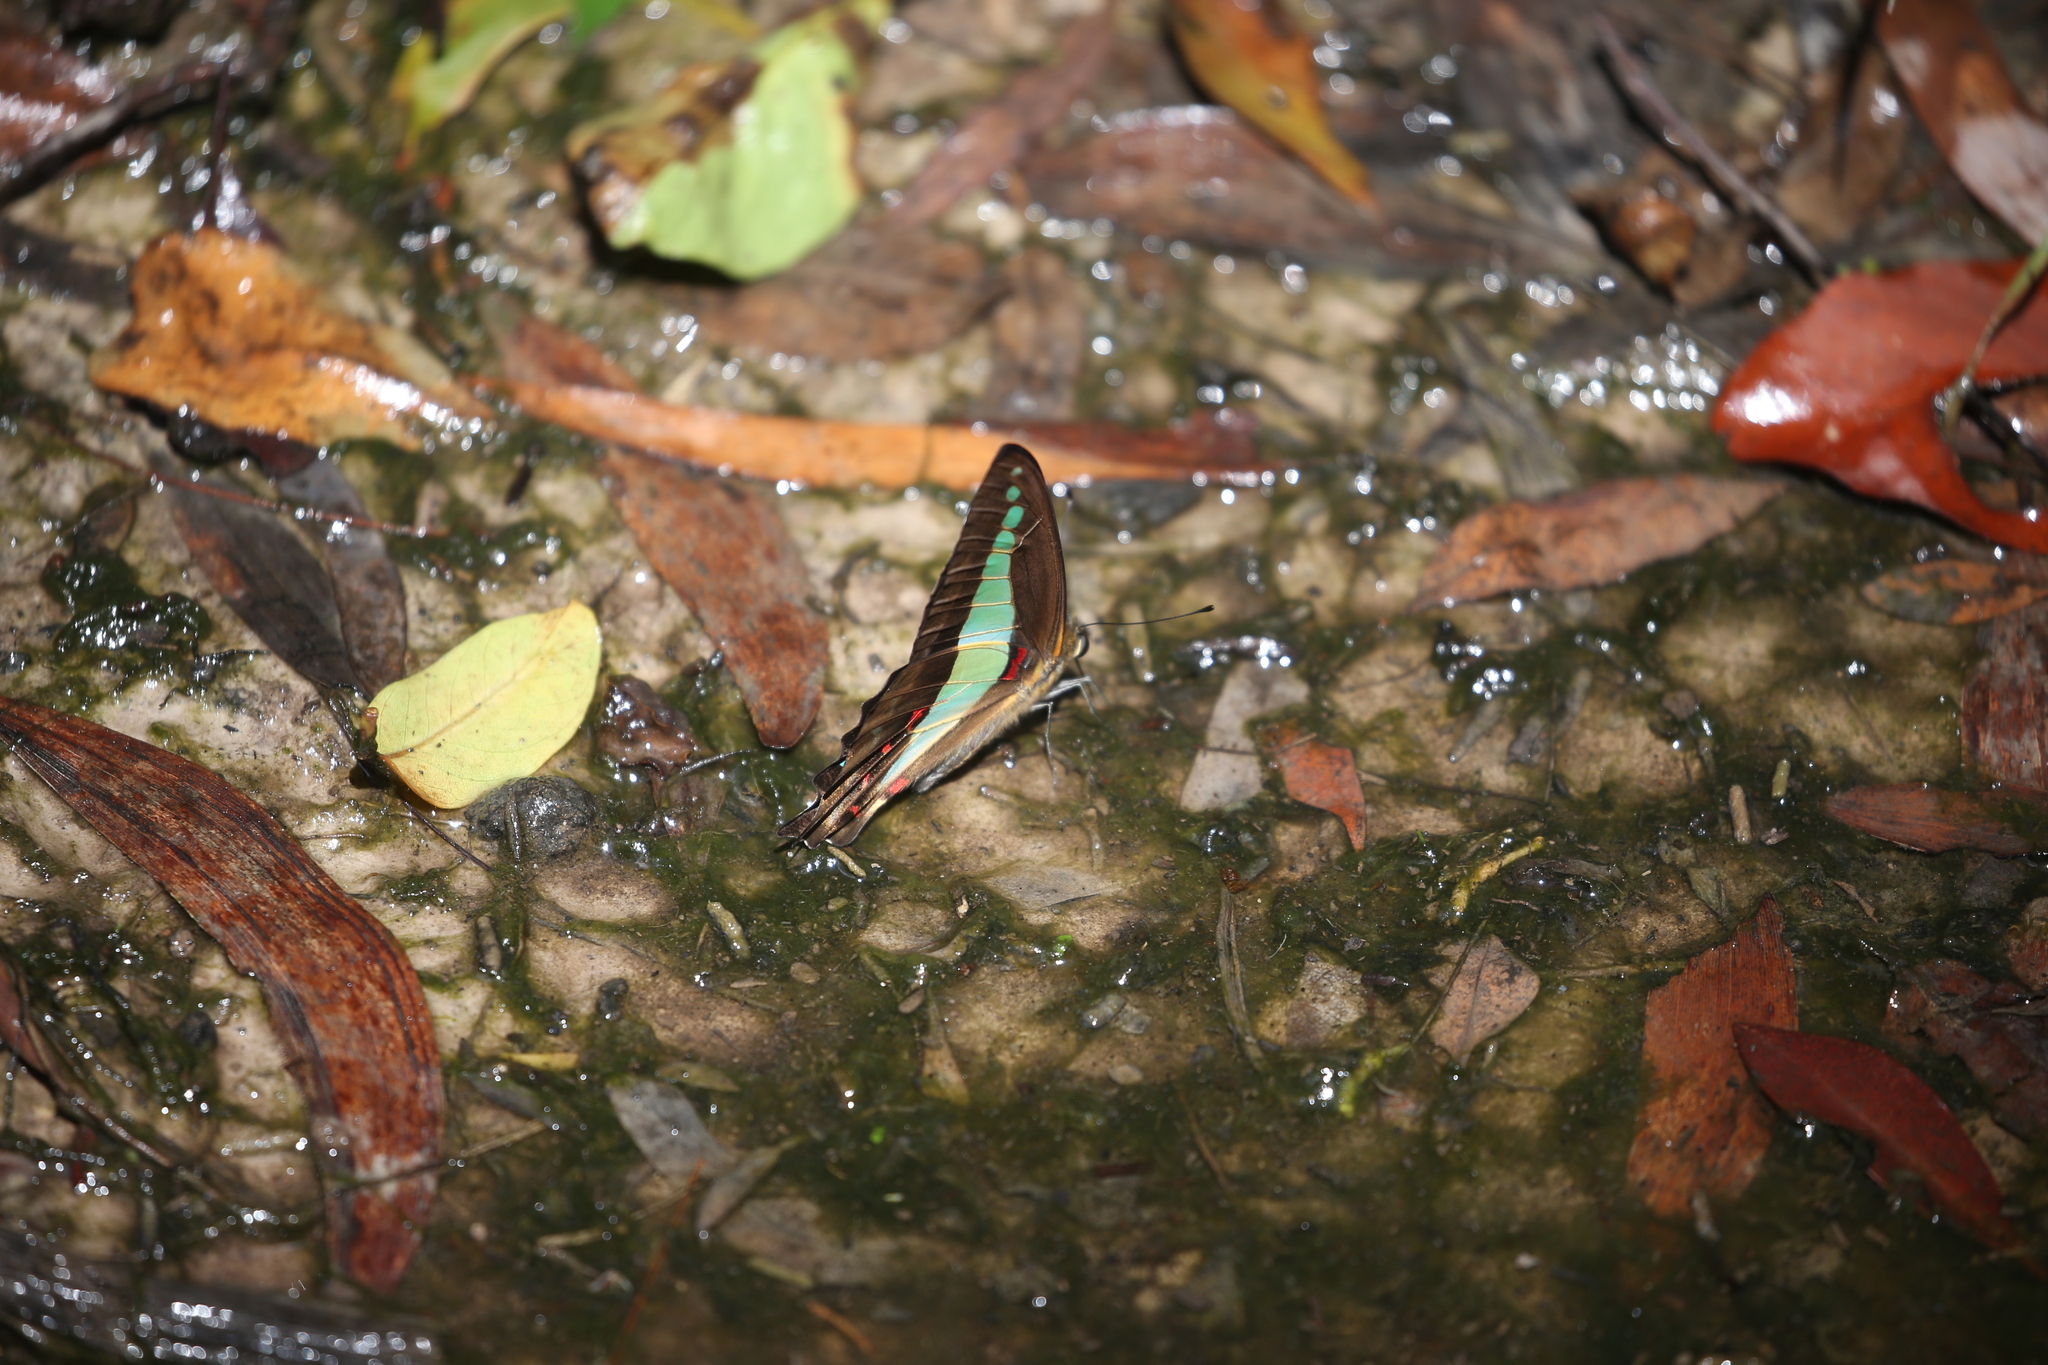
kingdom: Animalia
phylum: Arthropoda
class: Insecta
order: Lepidoptera
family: Papilionidae
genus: Graphium
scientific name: Graphium
